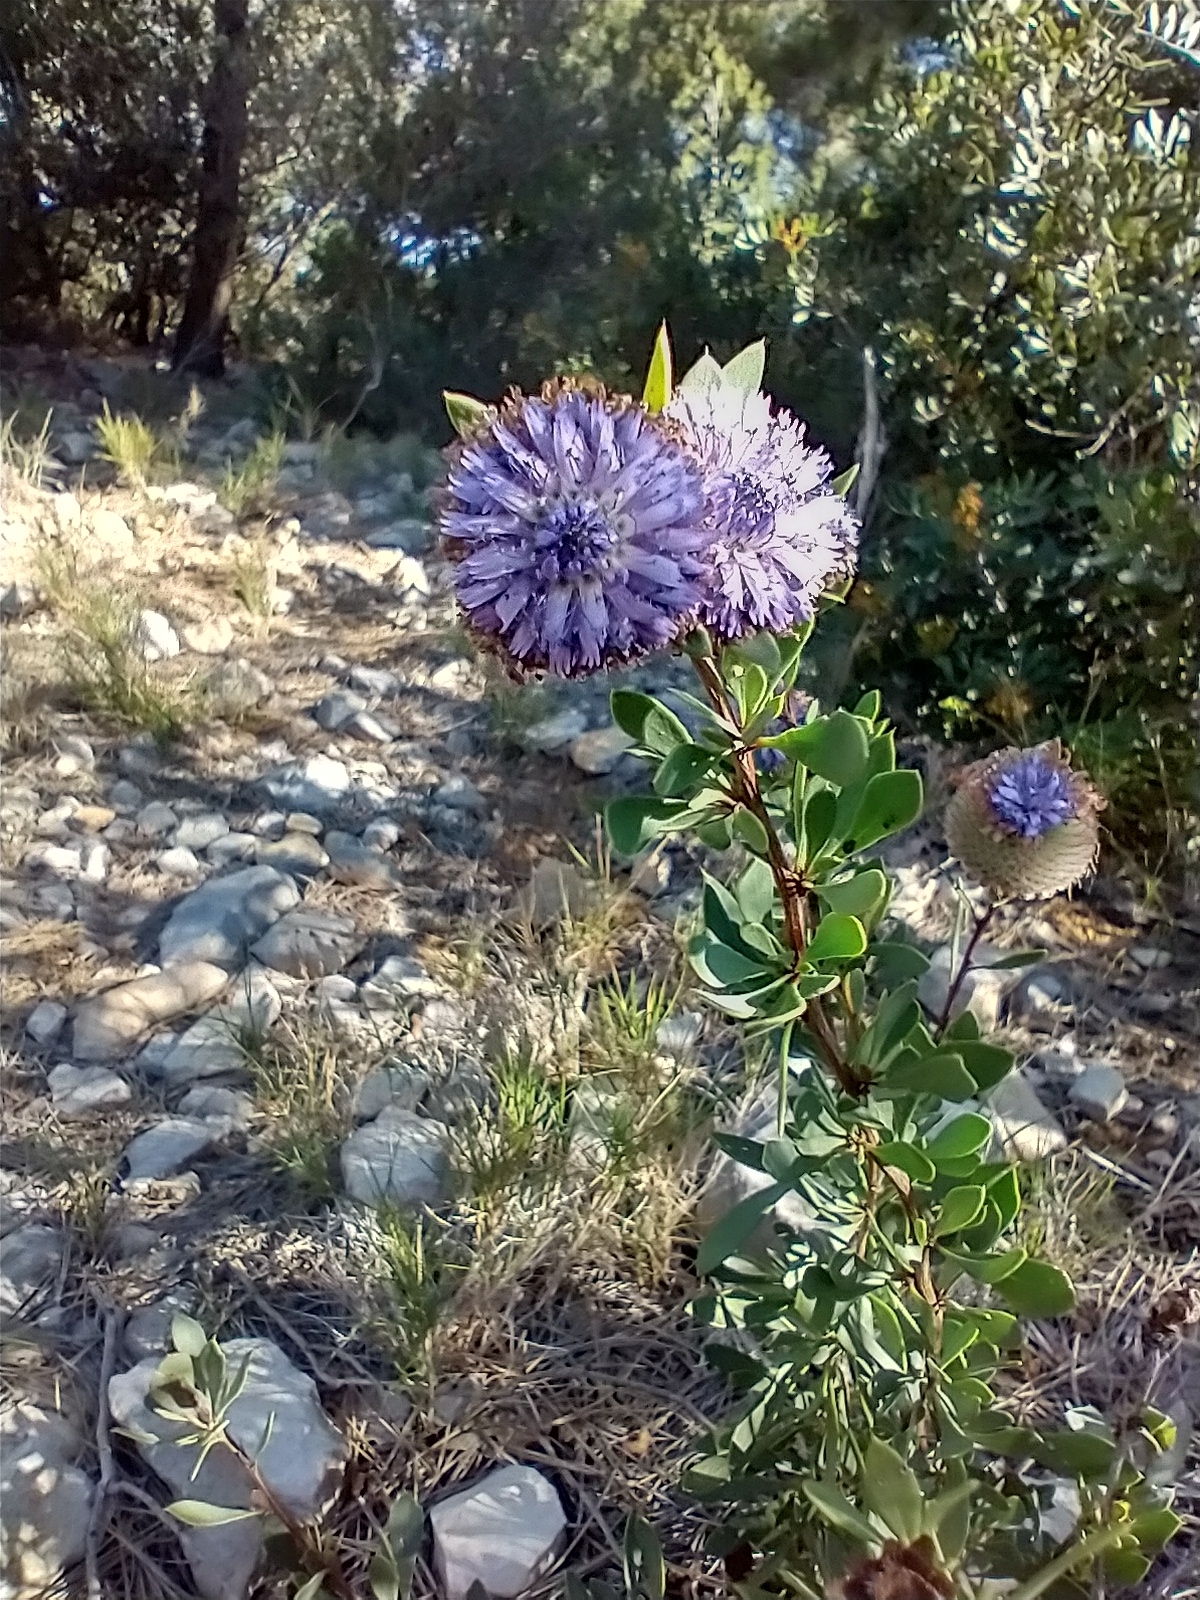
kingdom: Plantae
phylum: Tracheophyta
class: Magnoliopsida
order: Lamiales
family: Plantaginaceae
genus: Globularia
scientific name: Globularia alypum
